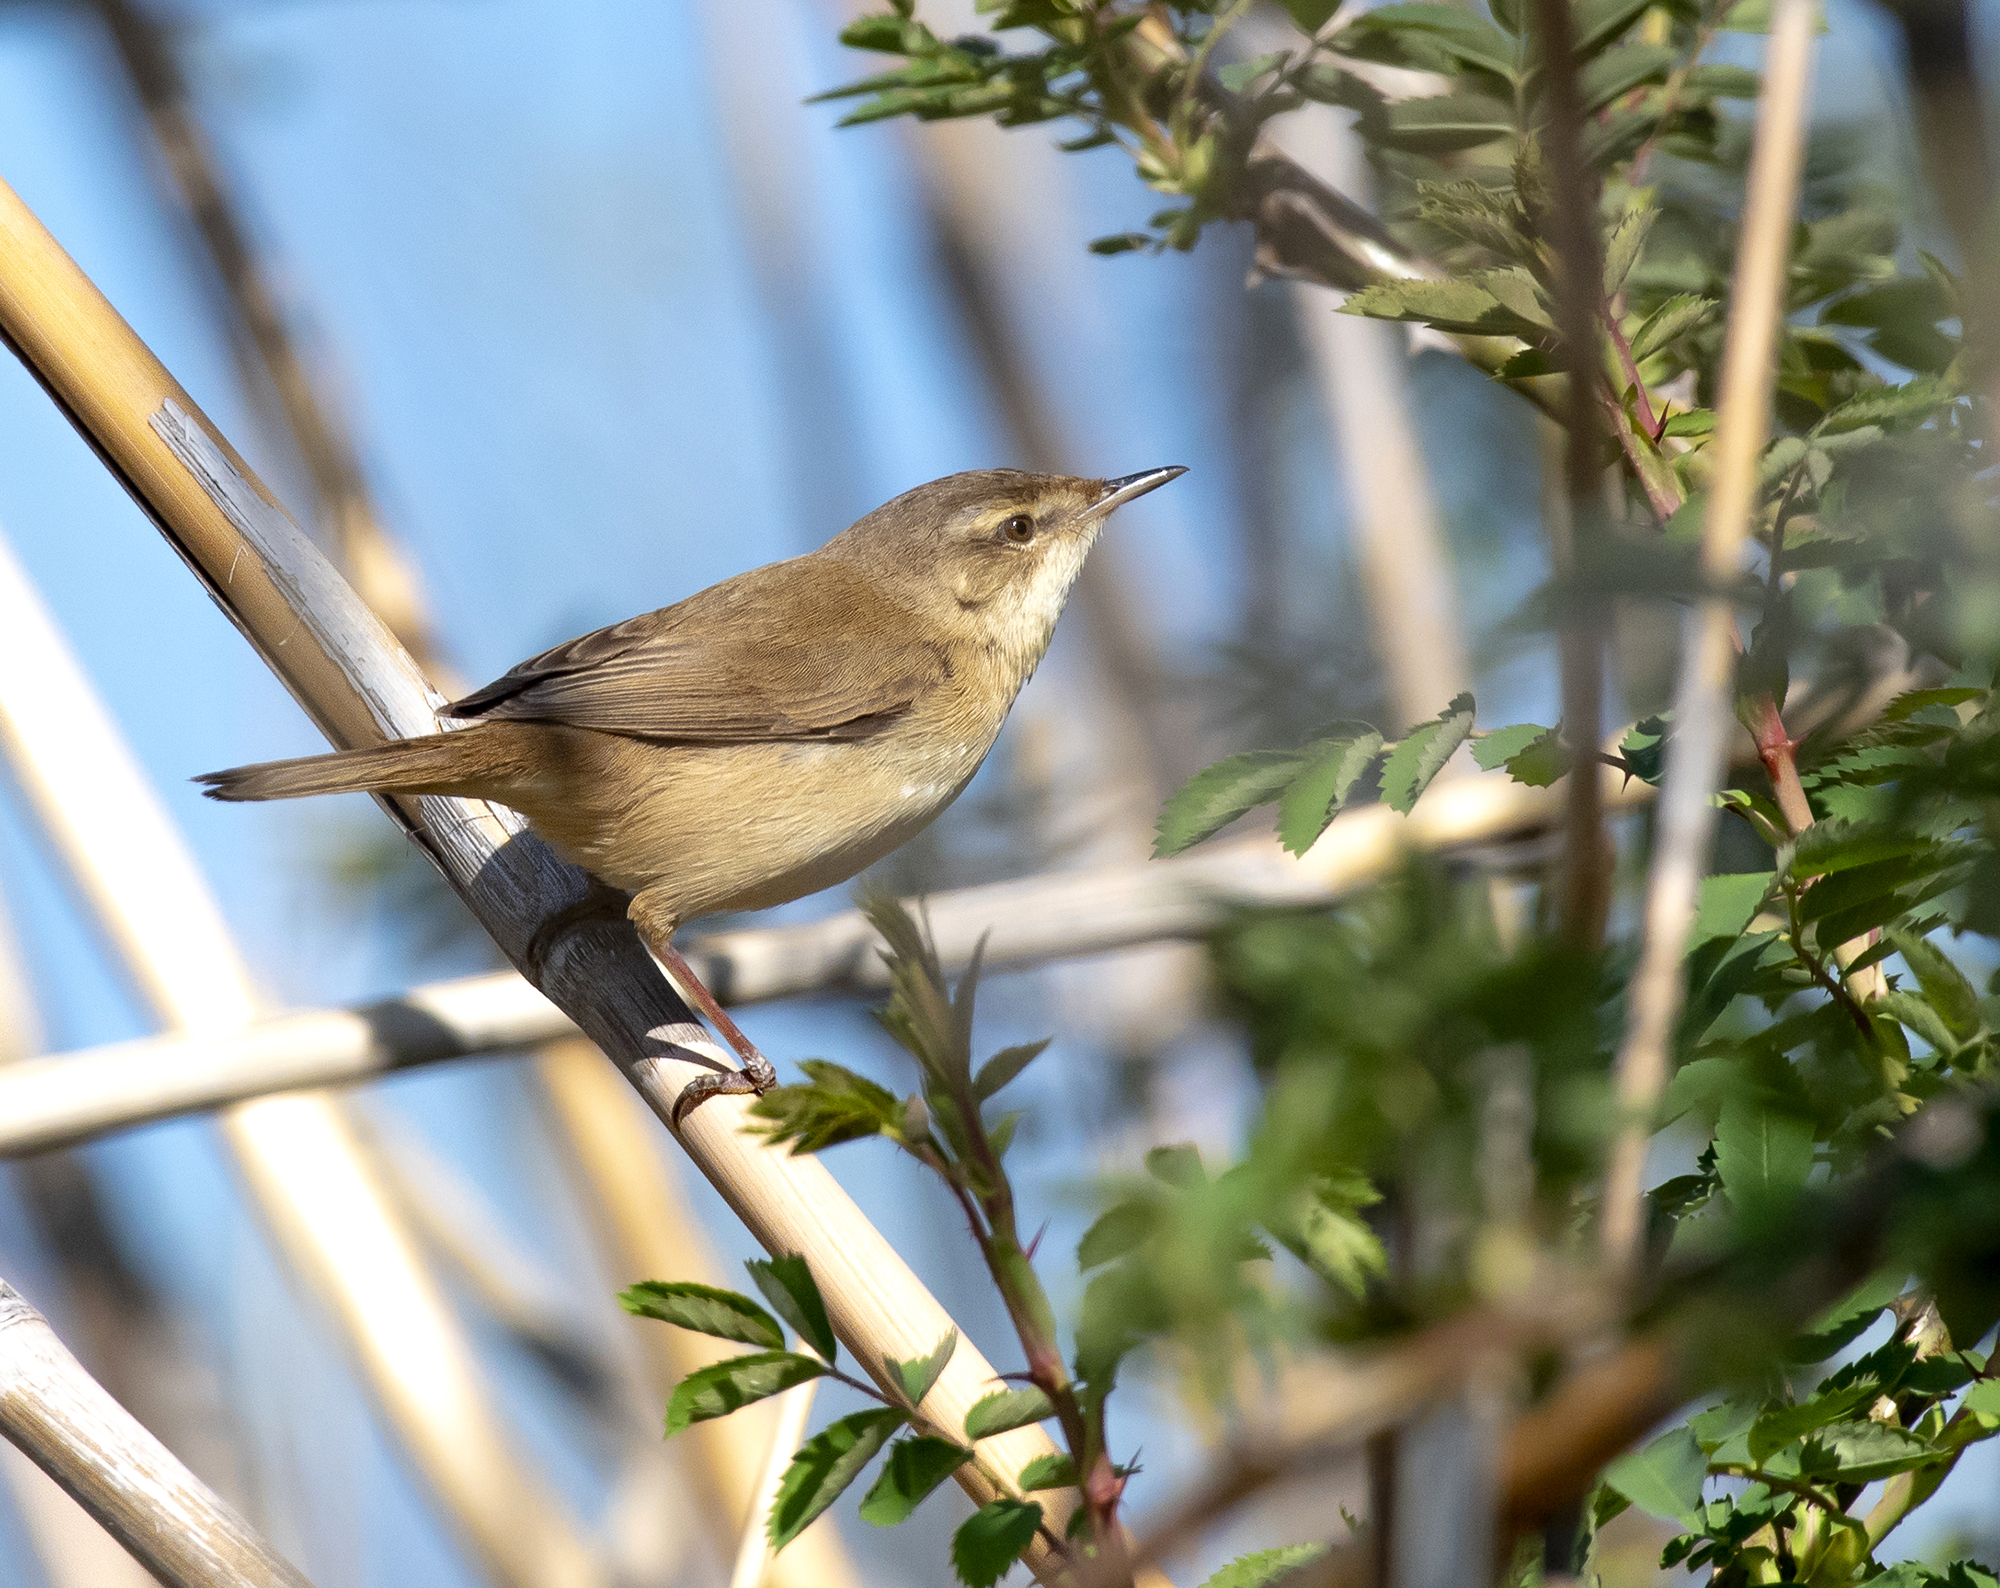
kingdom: Animalia
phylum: Chordata
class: Aves
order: Passeriformes
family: Acrocephalidae
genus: Acrocephalus
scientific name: Acrocephalus agricola
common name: Paddyfield warbler
